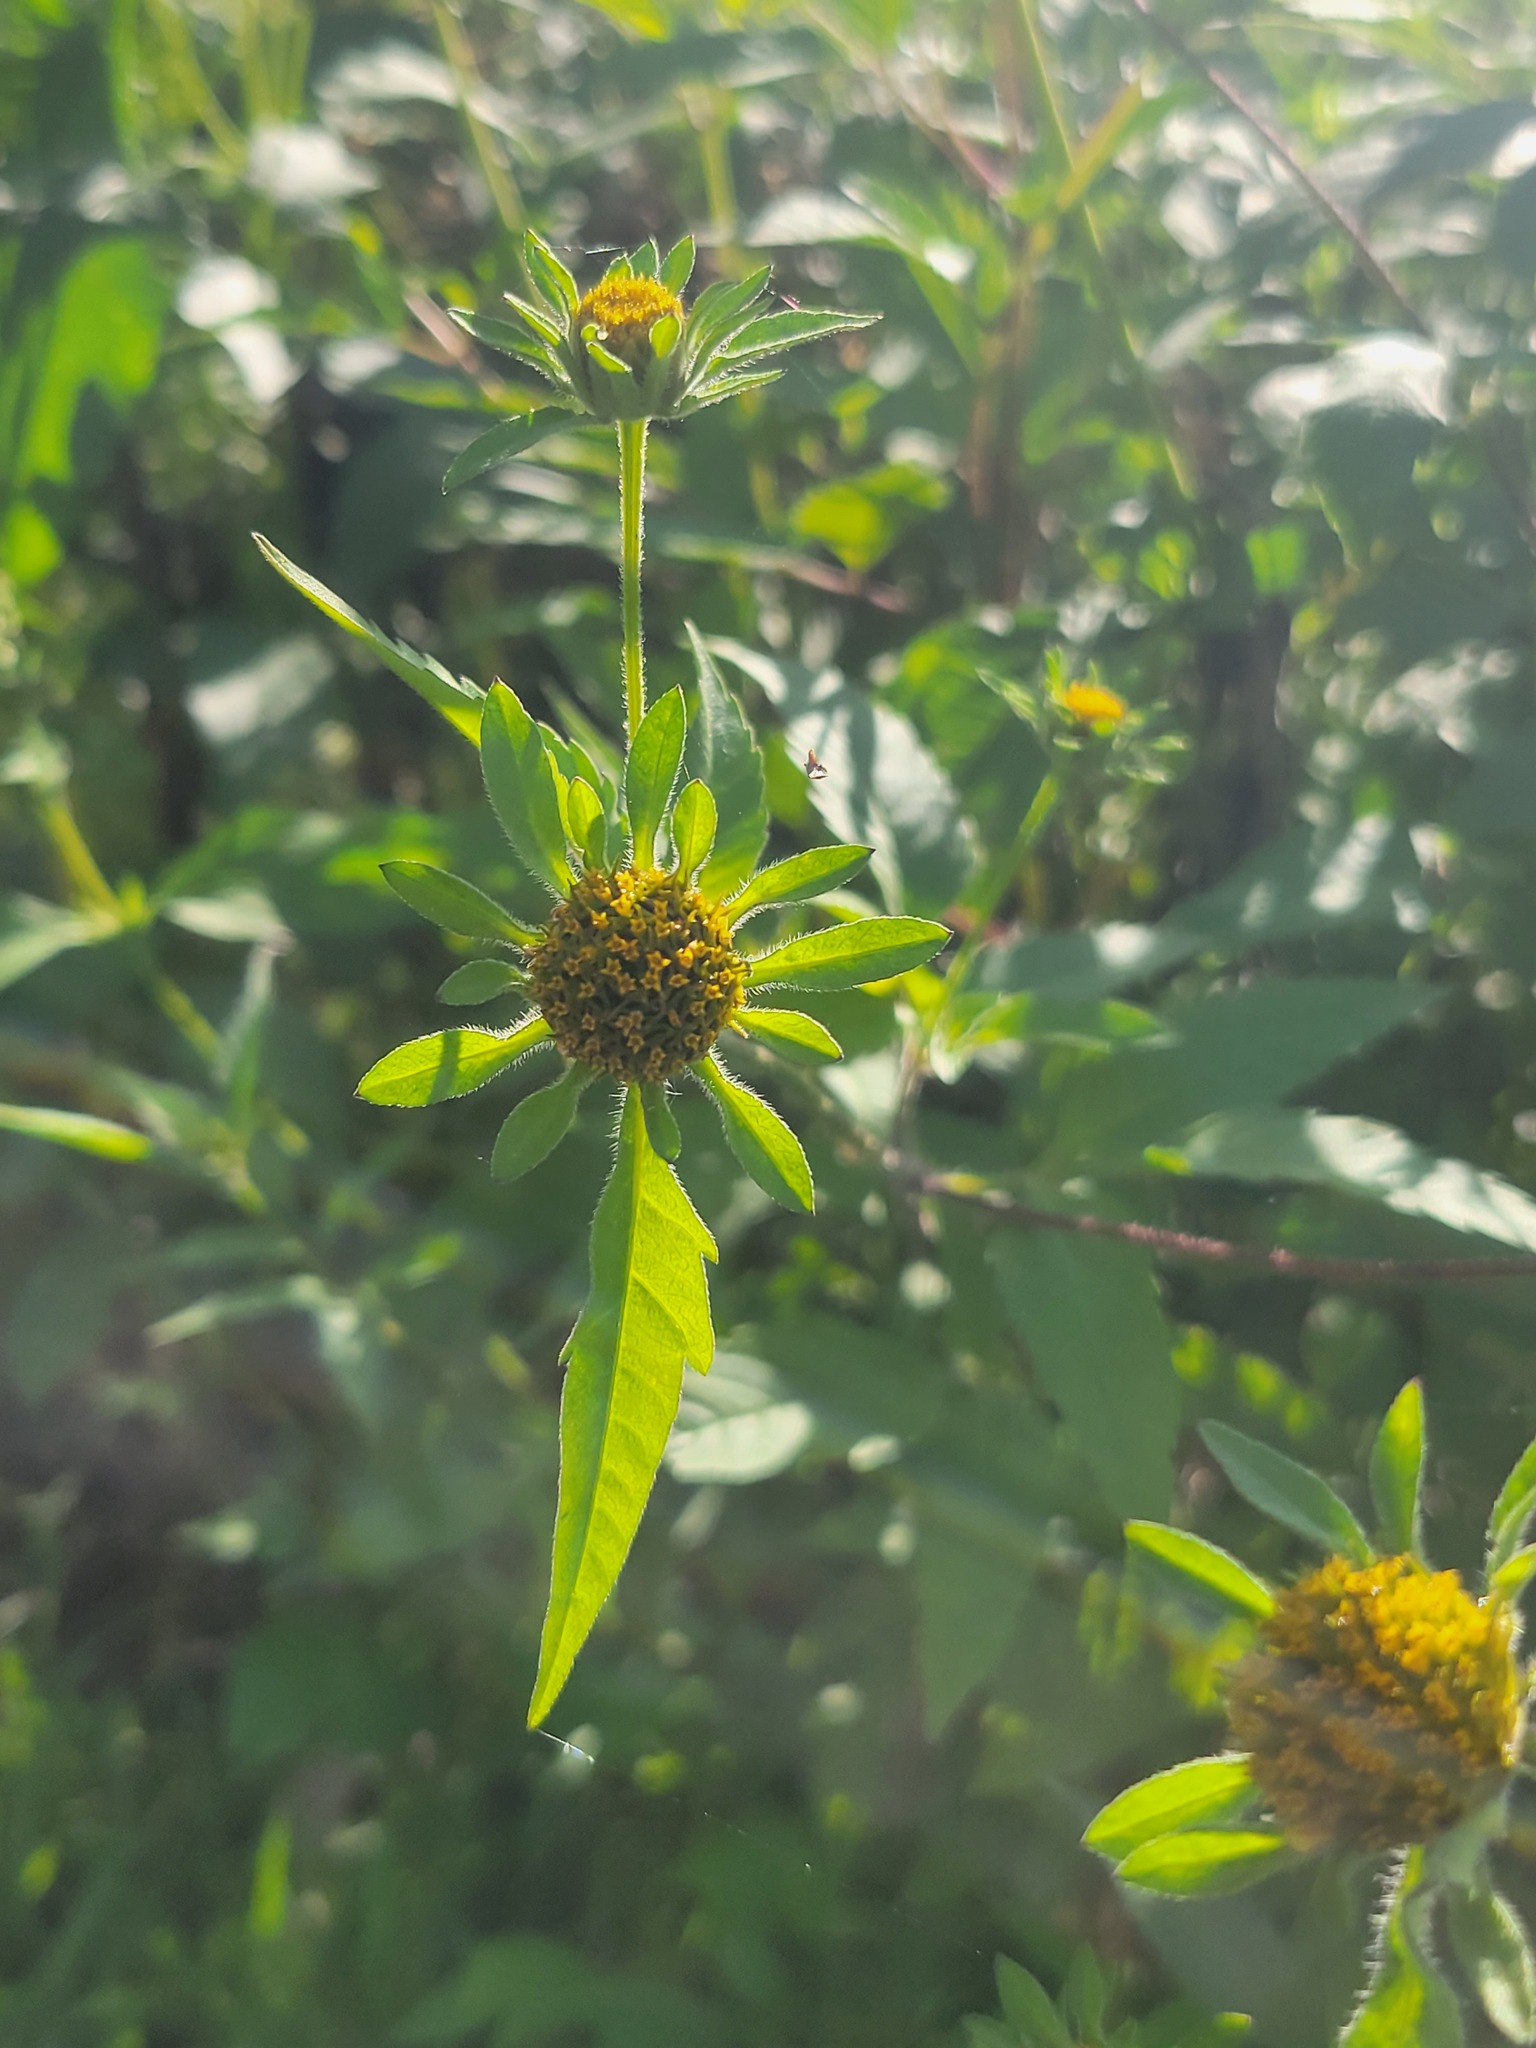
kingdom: Plantae
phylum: Tracheophyta
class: Magnoliopsida
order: Asterales
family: Asteraceae
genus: Bidens
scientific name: Bidens vulgata
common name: Tall beggarticks
